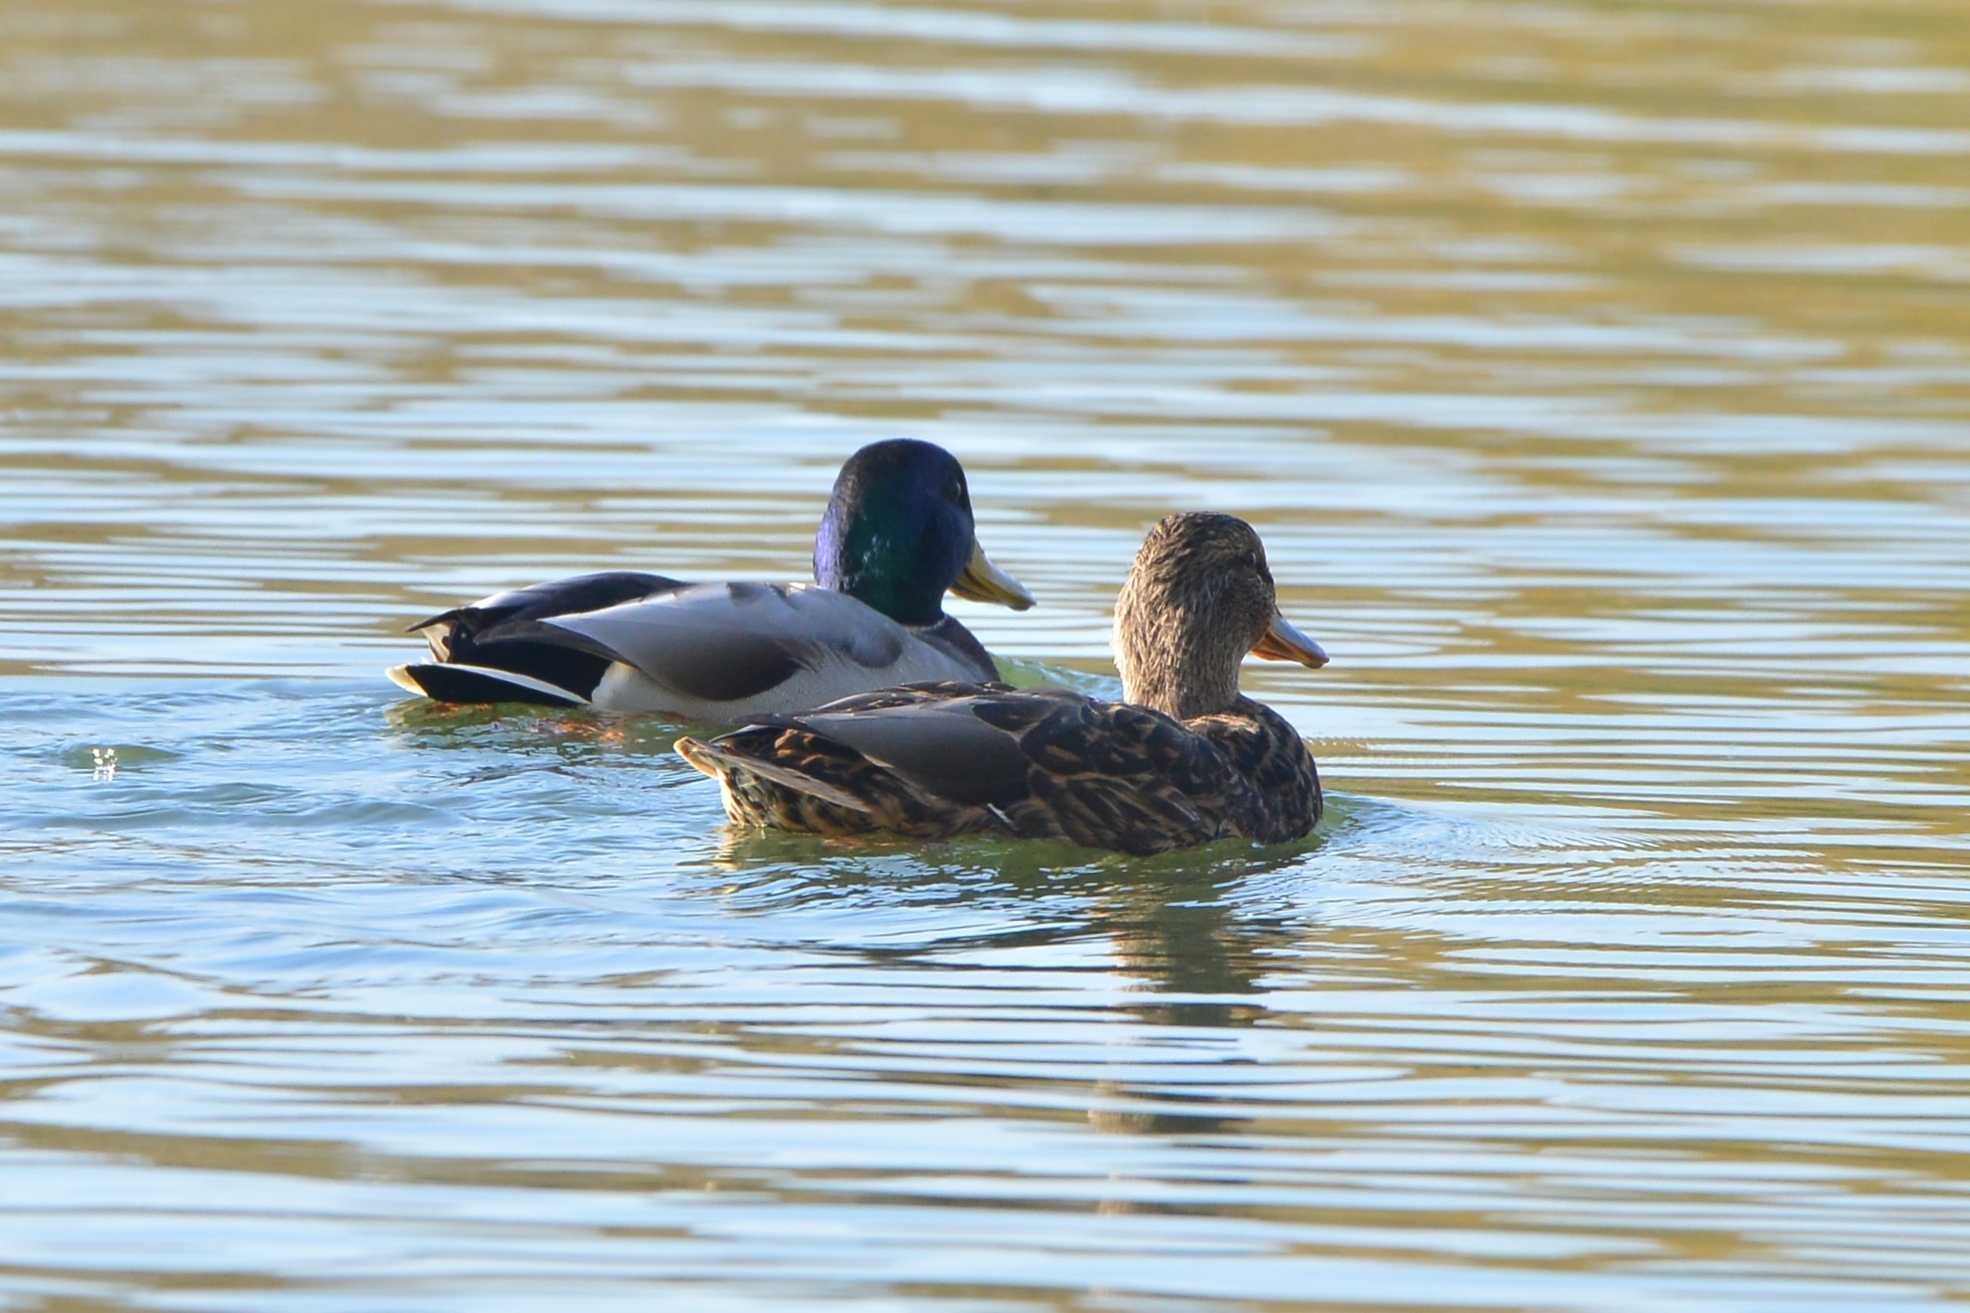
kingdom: Animalia
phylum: Chordata
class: Aves
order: Anseriformes
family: Anatidae
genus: Anas
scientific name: Anas platyrhynchos
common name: Mallard
